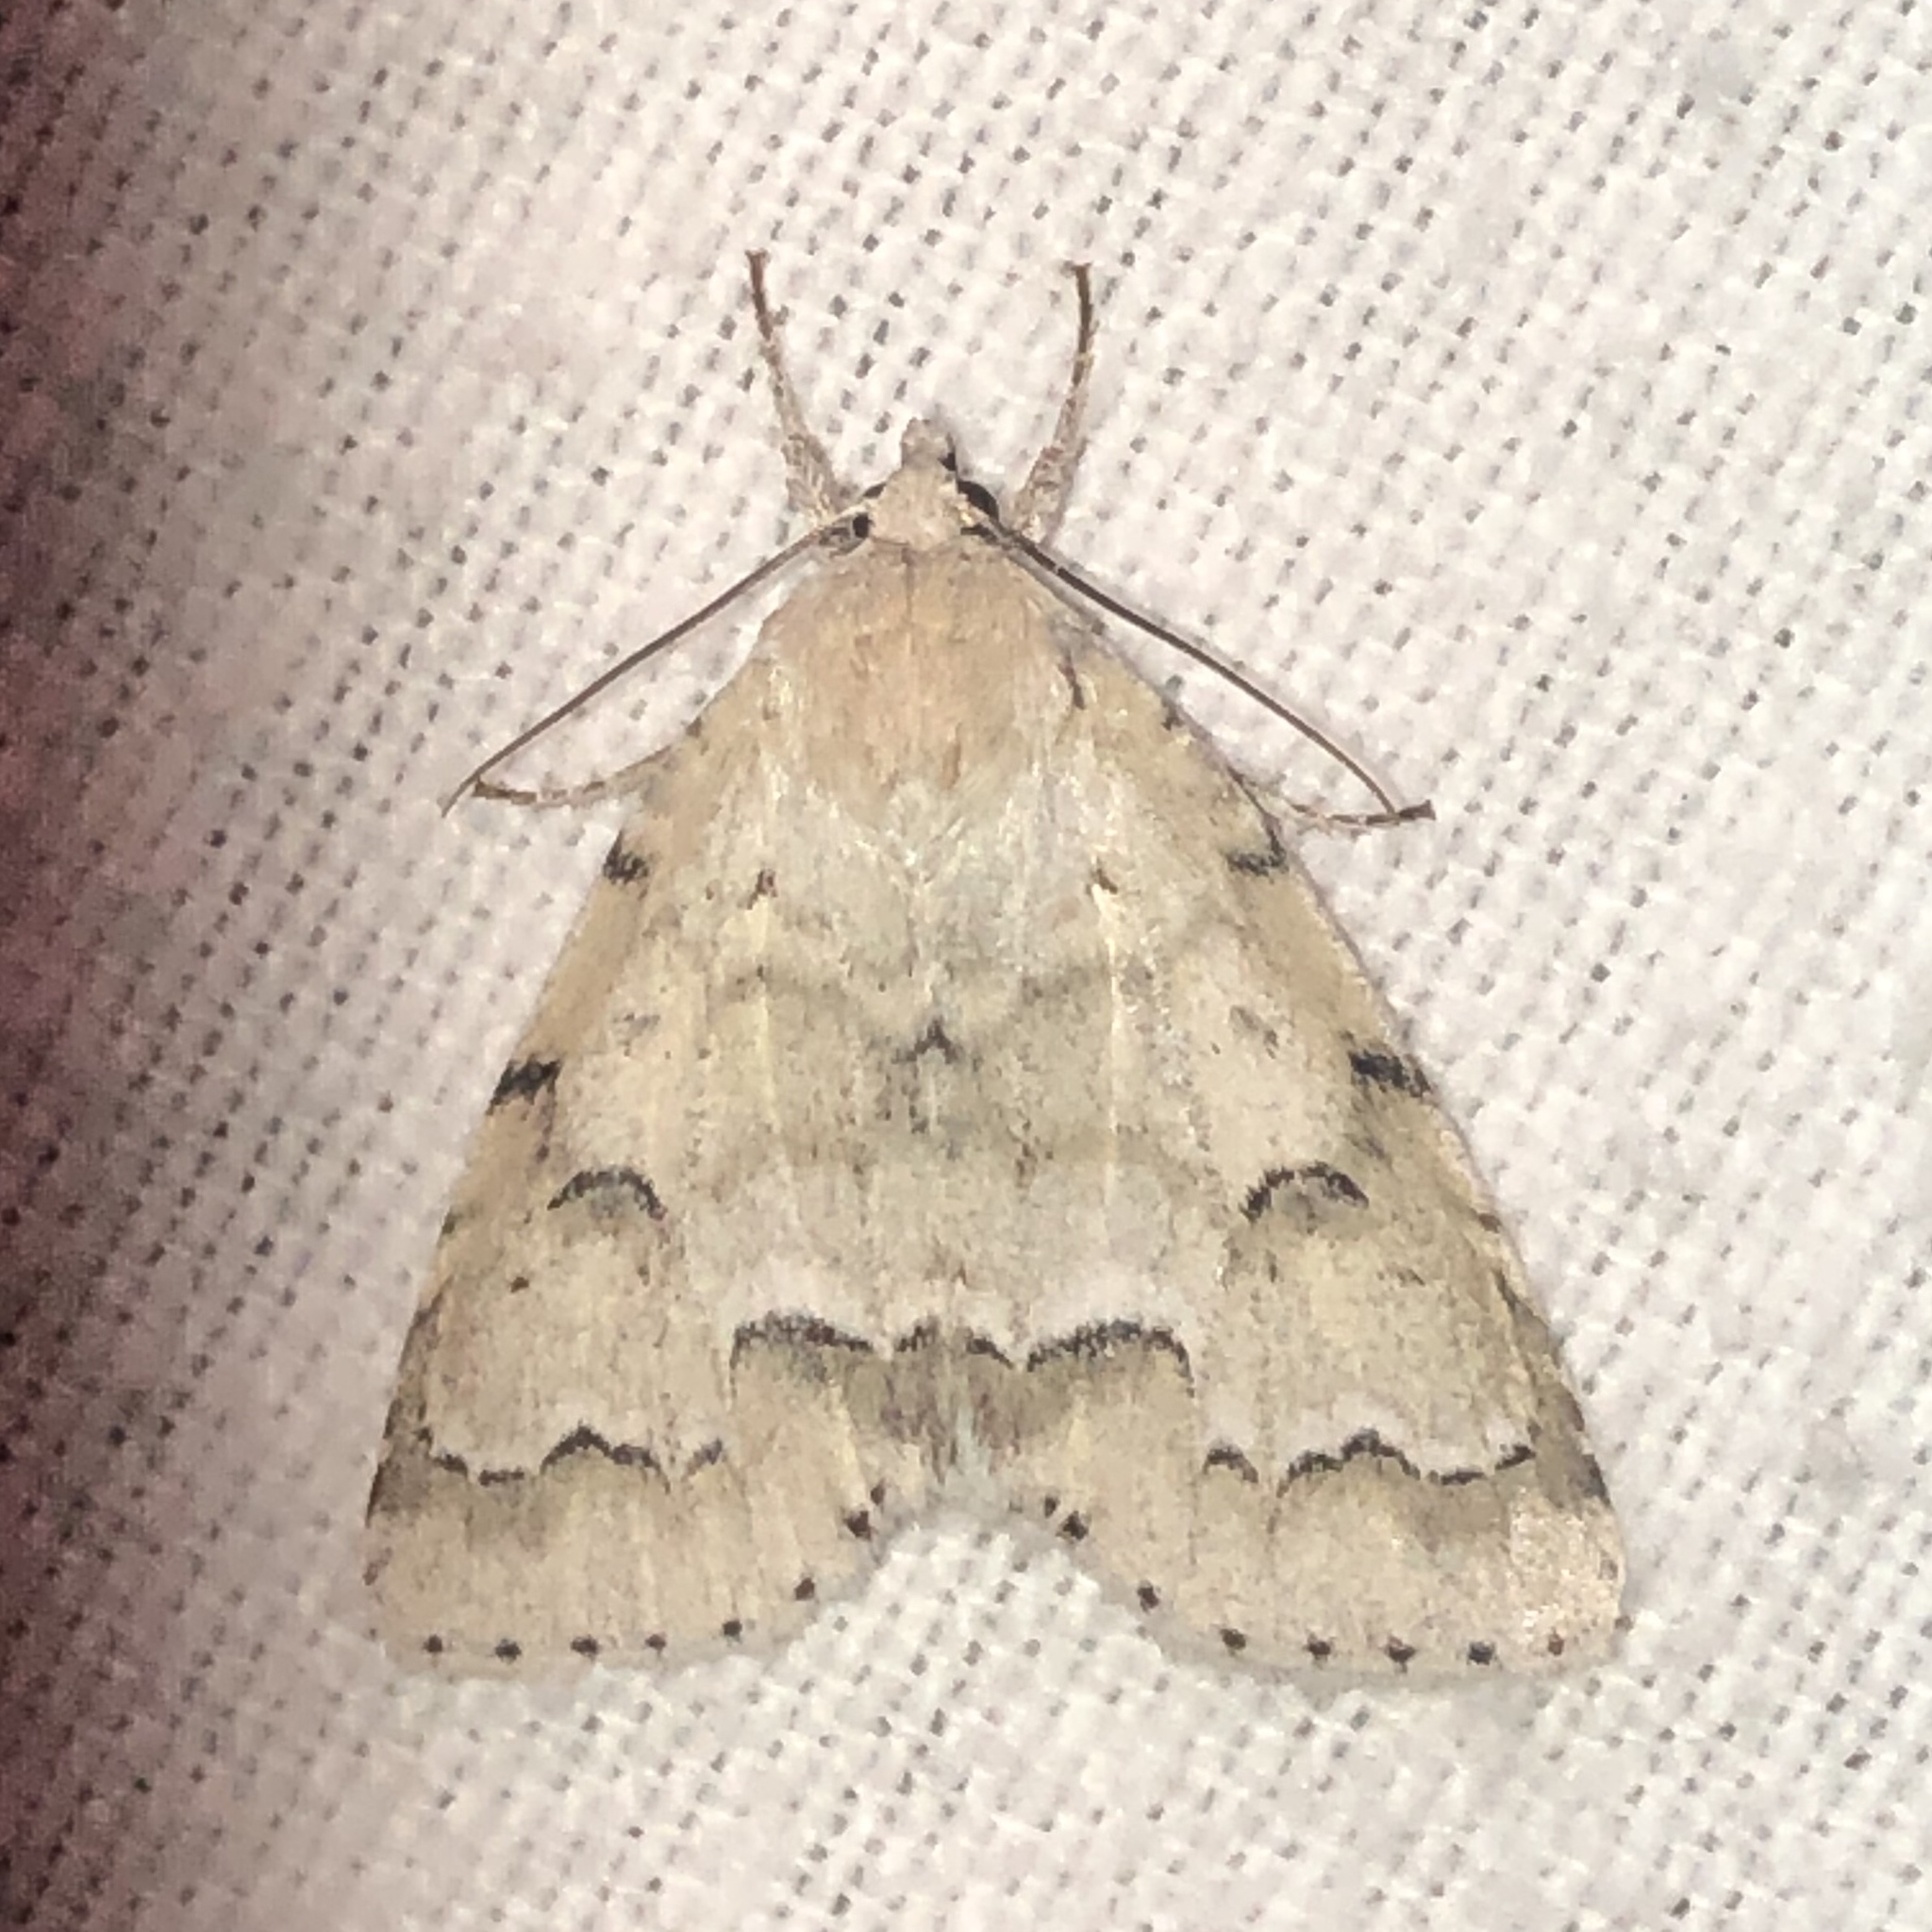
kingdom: Animalia
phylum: Arthropoda
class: Insecta
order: Lepidoptera
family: Noctuidae
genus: Acronicta
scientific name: Acronicta innotata
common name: Unmarked dagger
